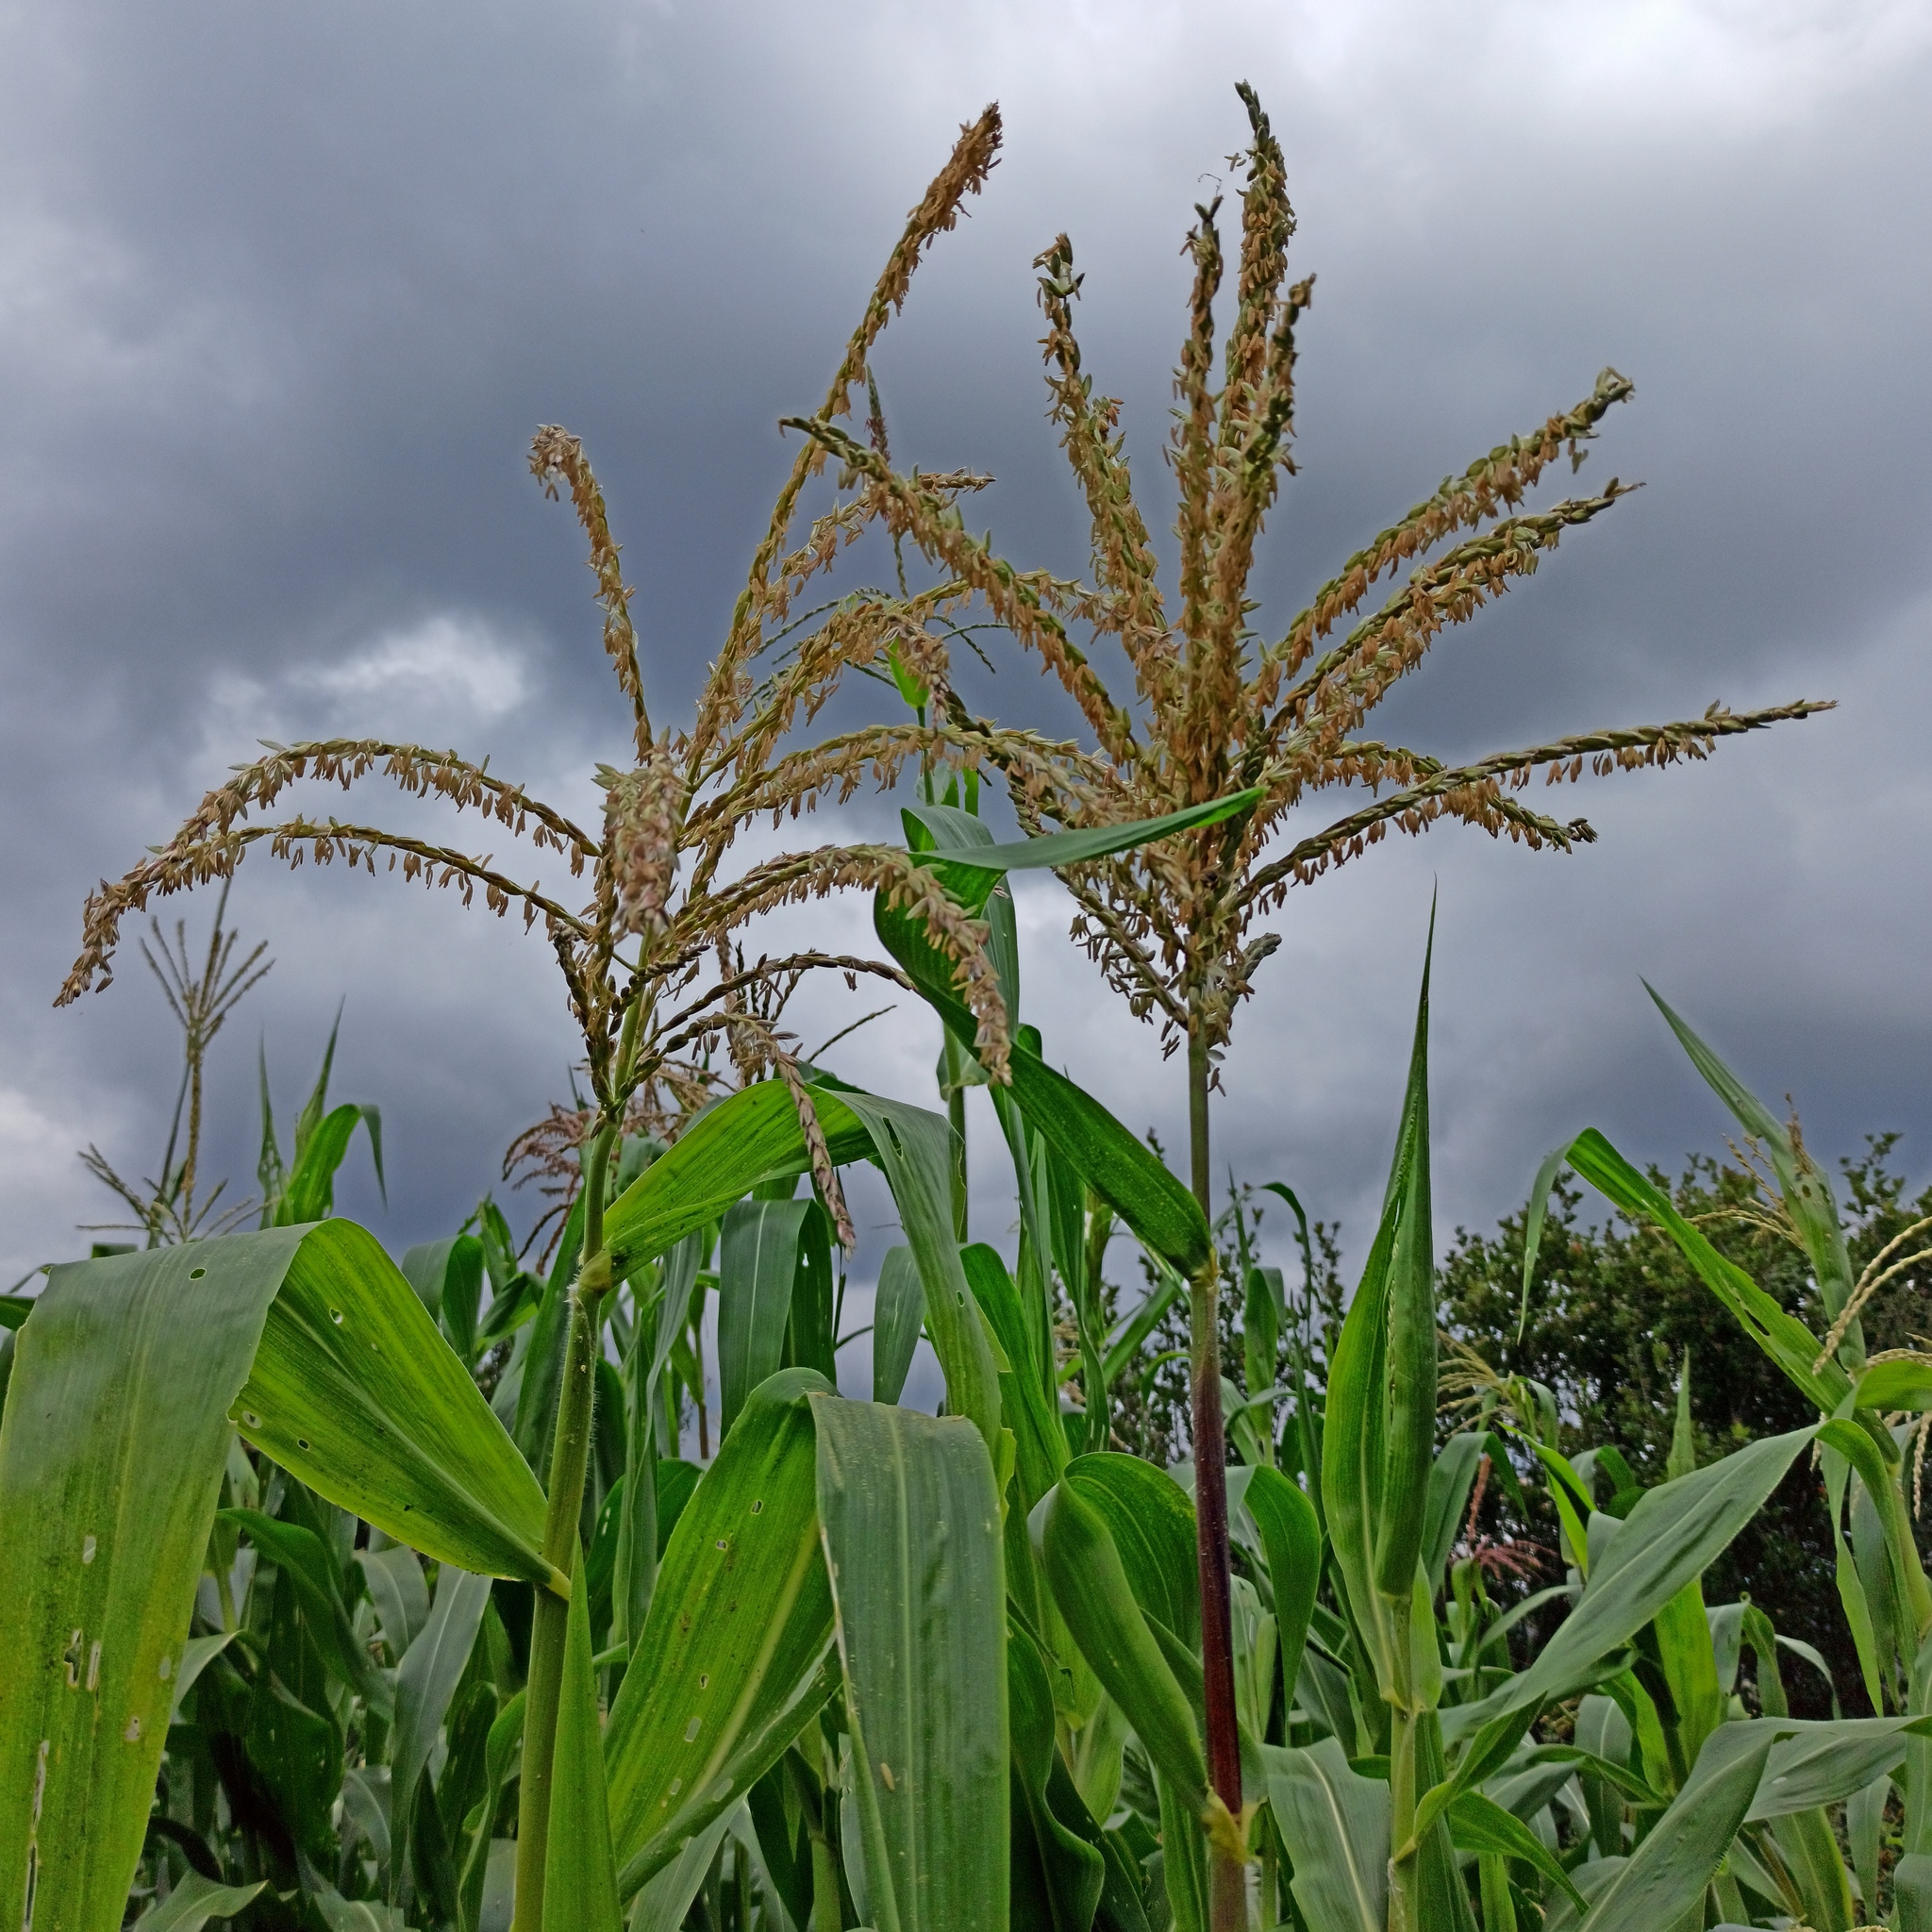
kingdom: Plantae
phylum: Tracheophyta
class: Liliopsida
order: Poales
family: Poaceae
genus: Zea
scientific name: Zea mays
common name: Maize
